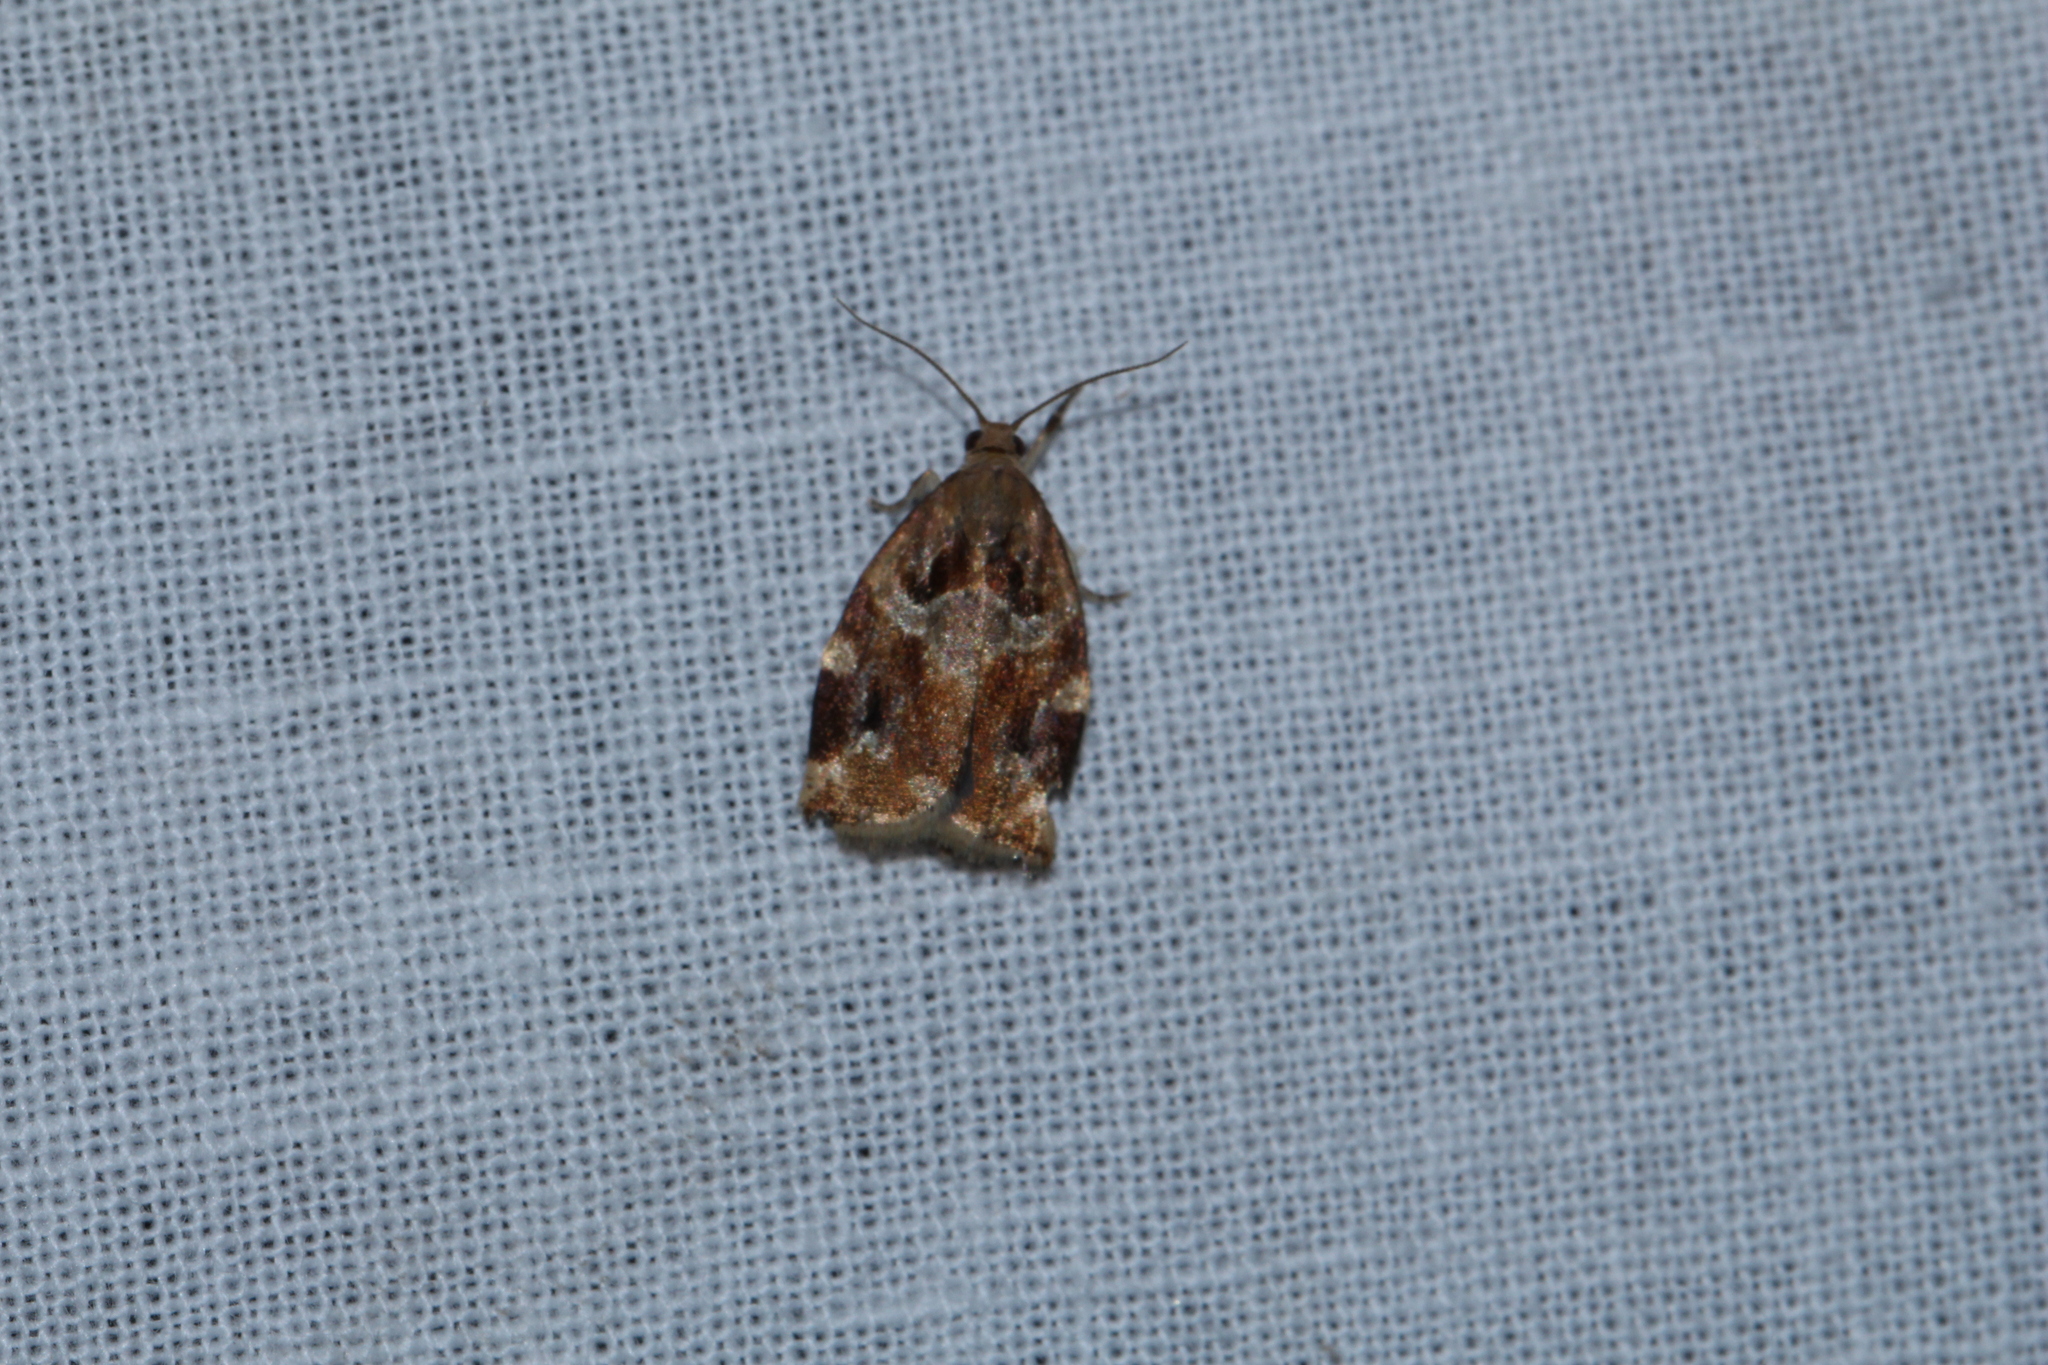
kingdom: Animalia
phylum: Arthropoda
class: Insecta
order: Lepidoptera
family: Tortricidae
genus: Archips
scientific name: Archips xylosteana
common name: Variegated golden tortrix
